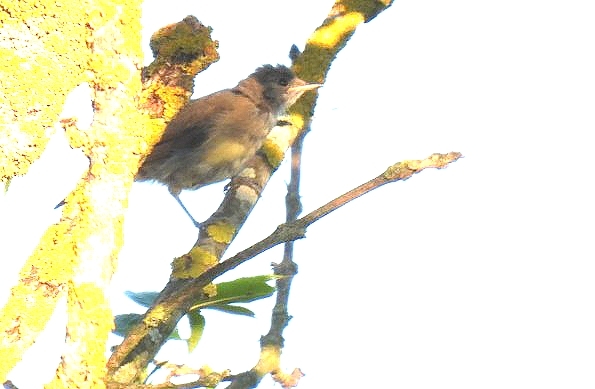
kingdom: Animalia
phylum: Chordata
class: Aves
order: Passeriformes
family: Sylviidae
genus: Sylvia
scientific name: Sylvia atricapilla
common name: Eurasian blackcap
